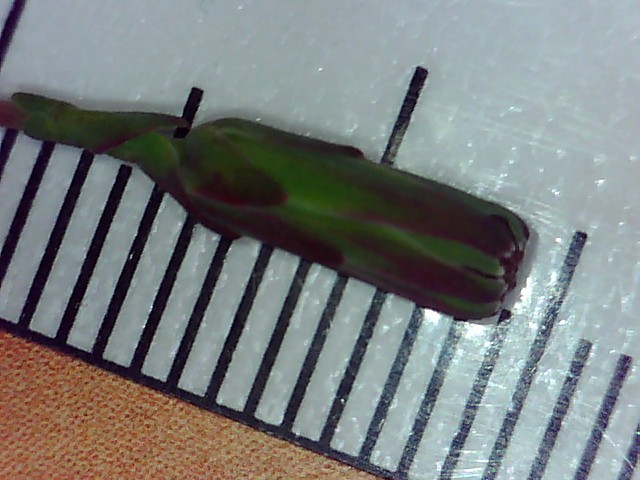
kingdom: Plantae
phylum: Tracheophyta
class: Magnoliopsida
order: Asterales
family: Asteraceae
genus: Lactuca
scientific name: Lactuca serriola
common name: Prickly lettuce
